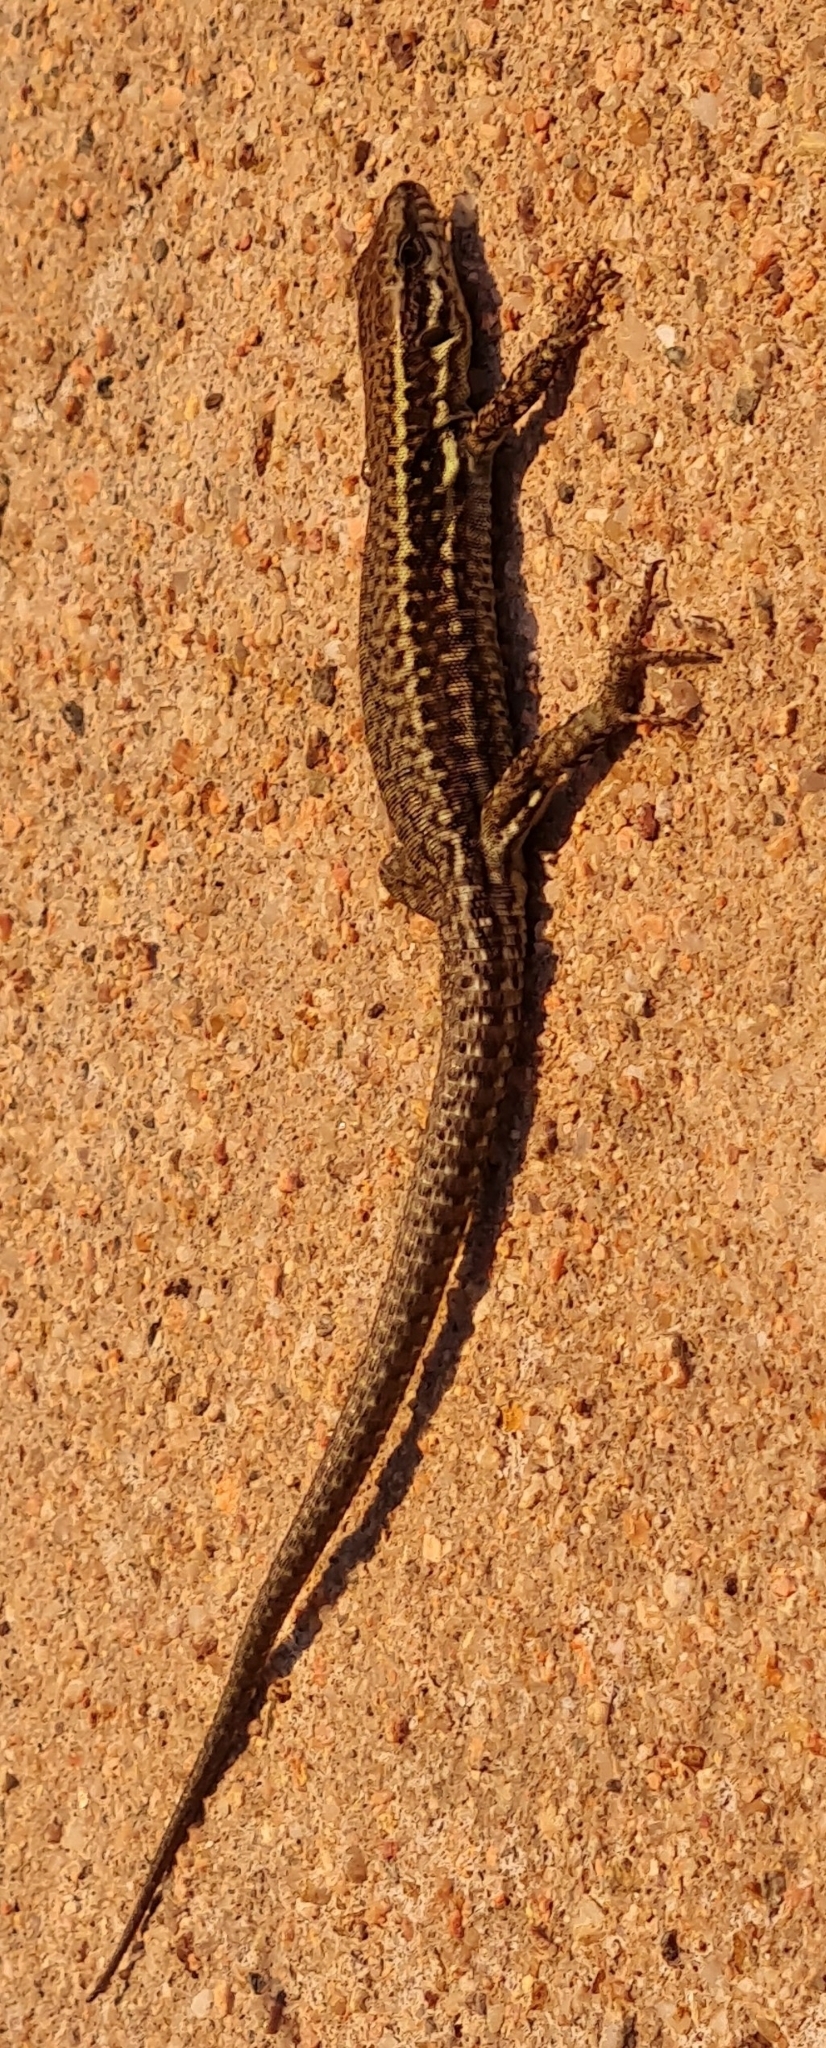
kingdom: Animalia
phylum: Chordata
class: Squamata
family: Lacertidae
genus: Podarcis
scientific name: Podarcis muralis
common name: Common wall lizard
